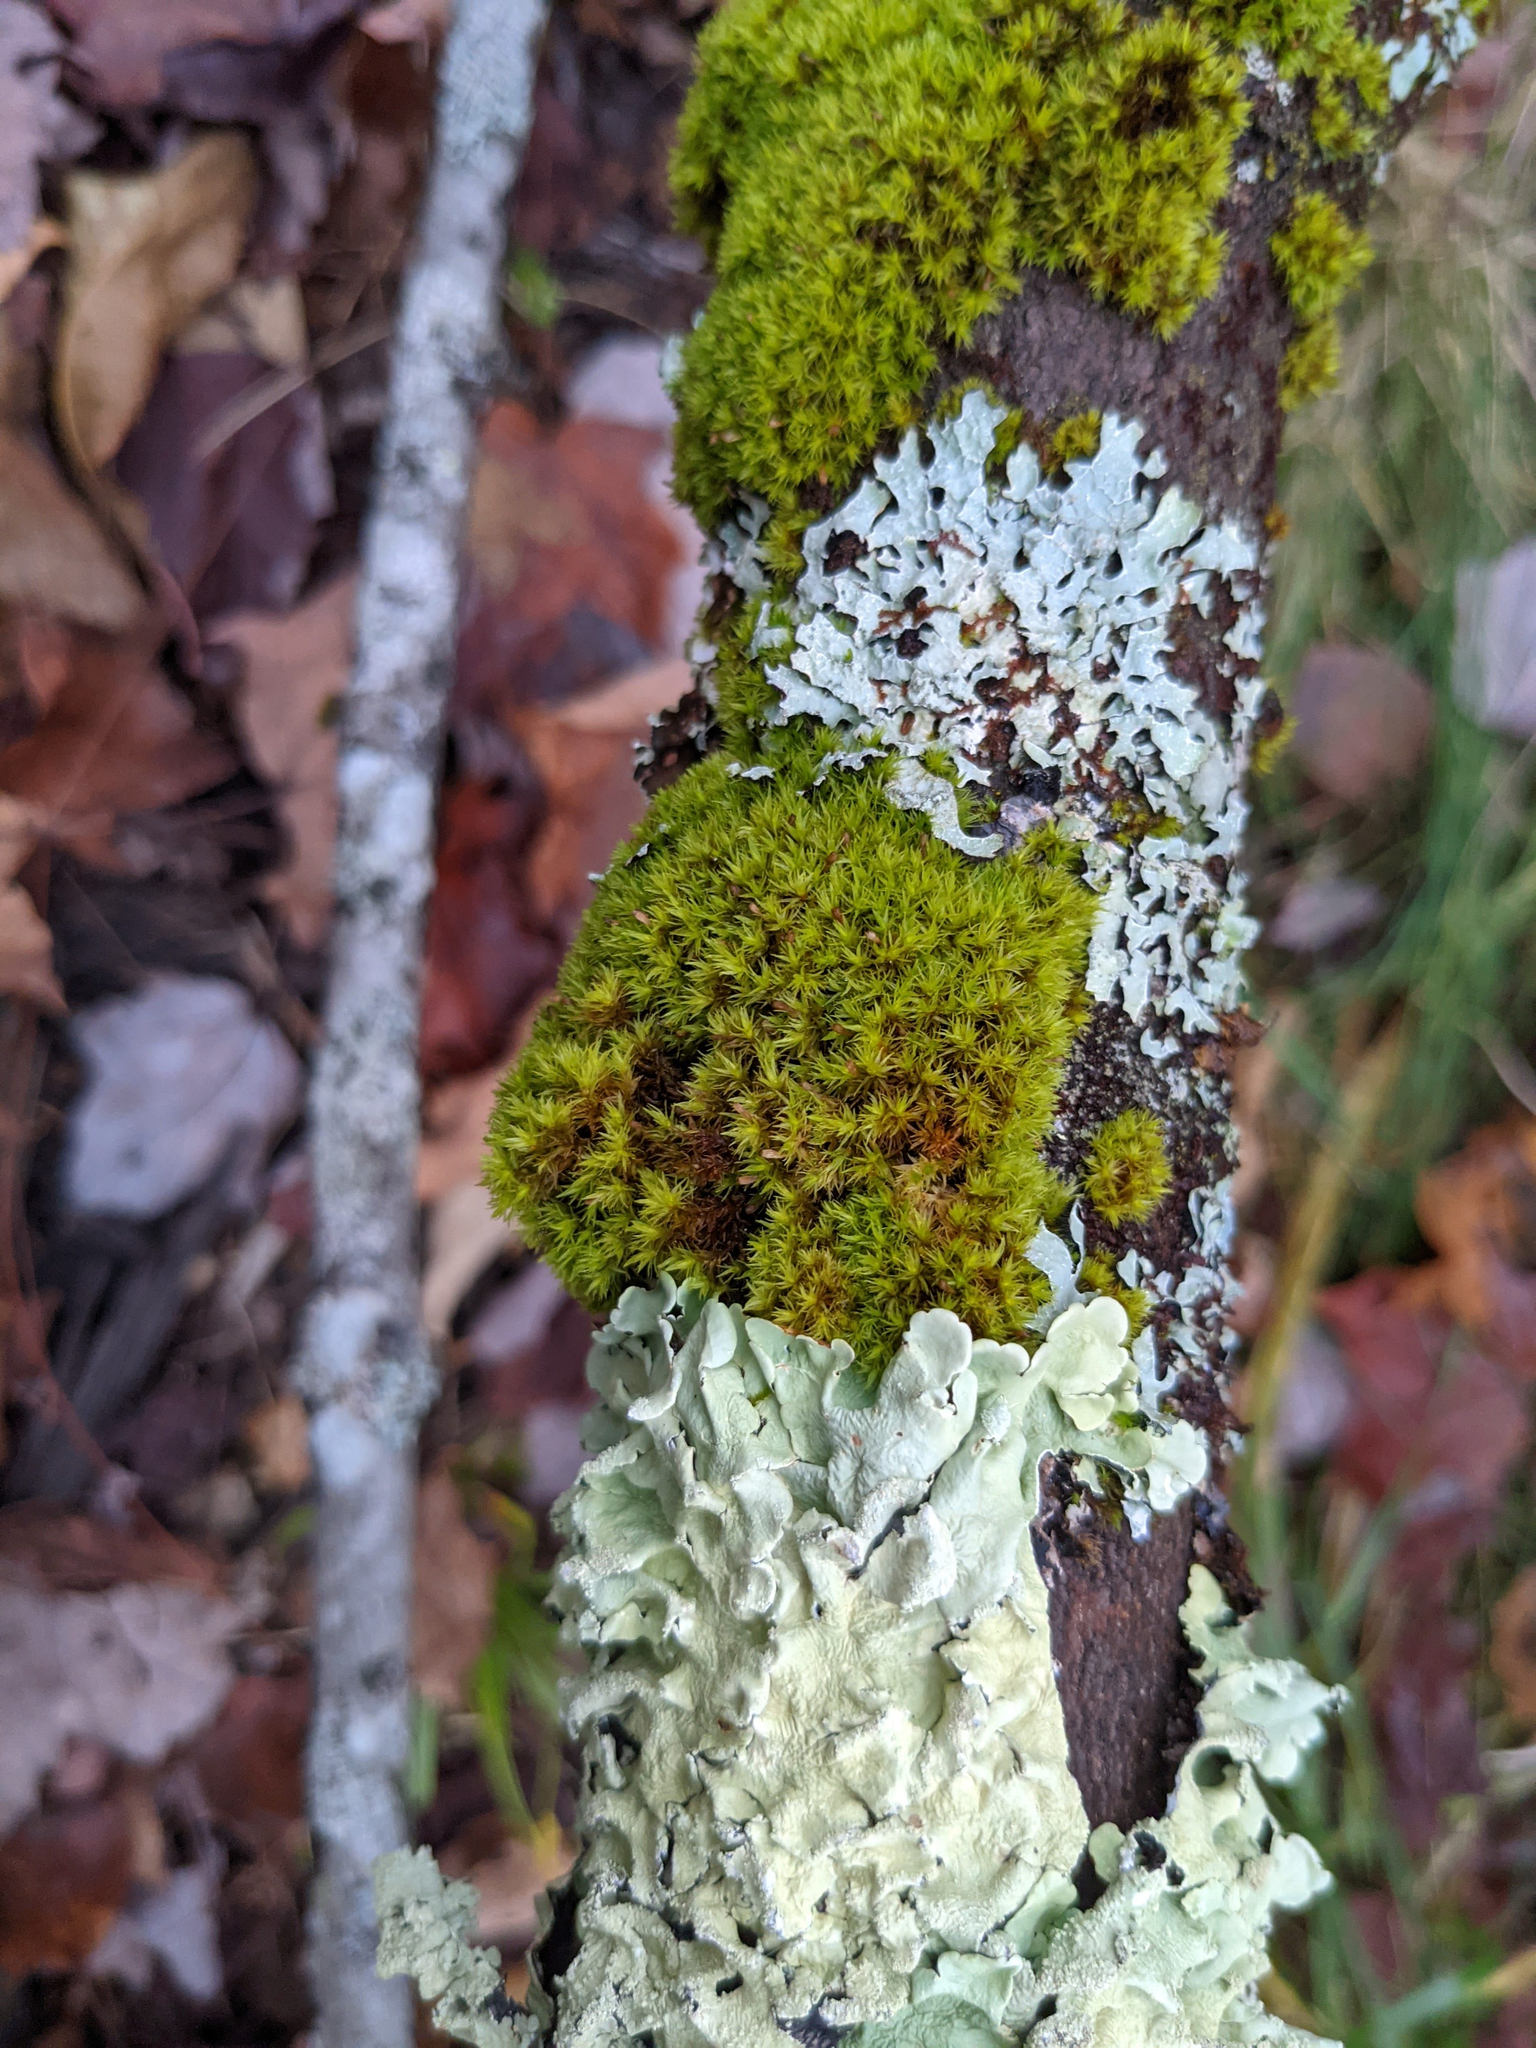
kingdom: Plantae
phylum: Bryophyta
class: Bryopsida
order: Orthotrichales
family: Orthotrichaceae
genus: Ulota
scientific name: Ulota crispa
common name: Crisped pincushion moss
